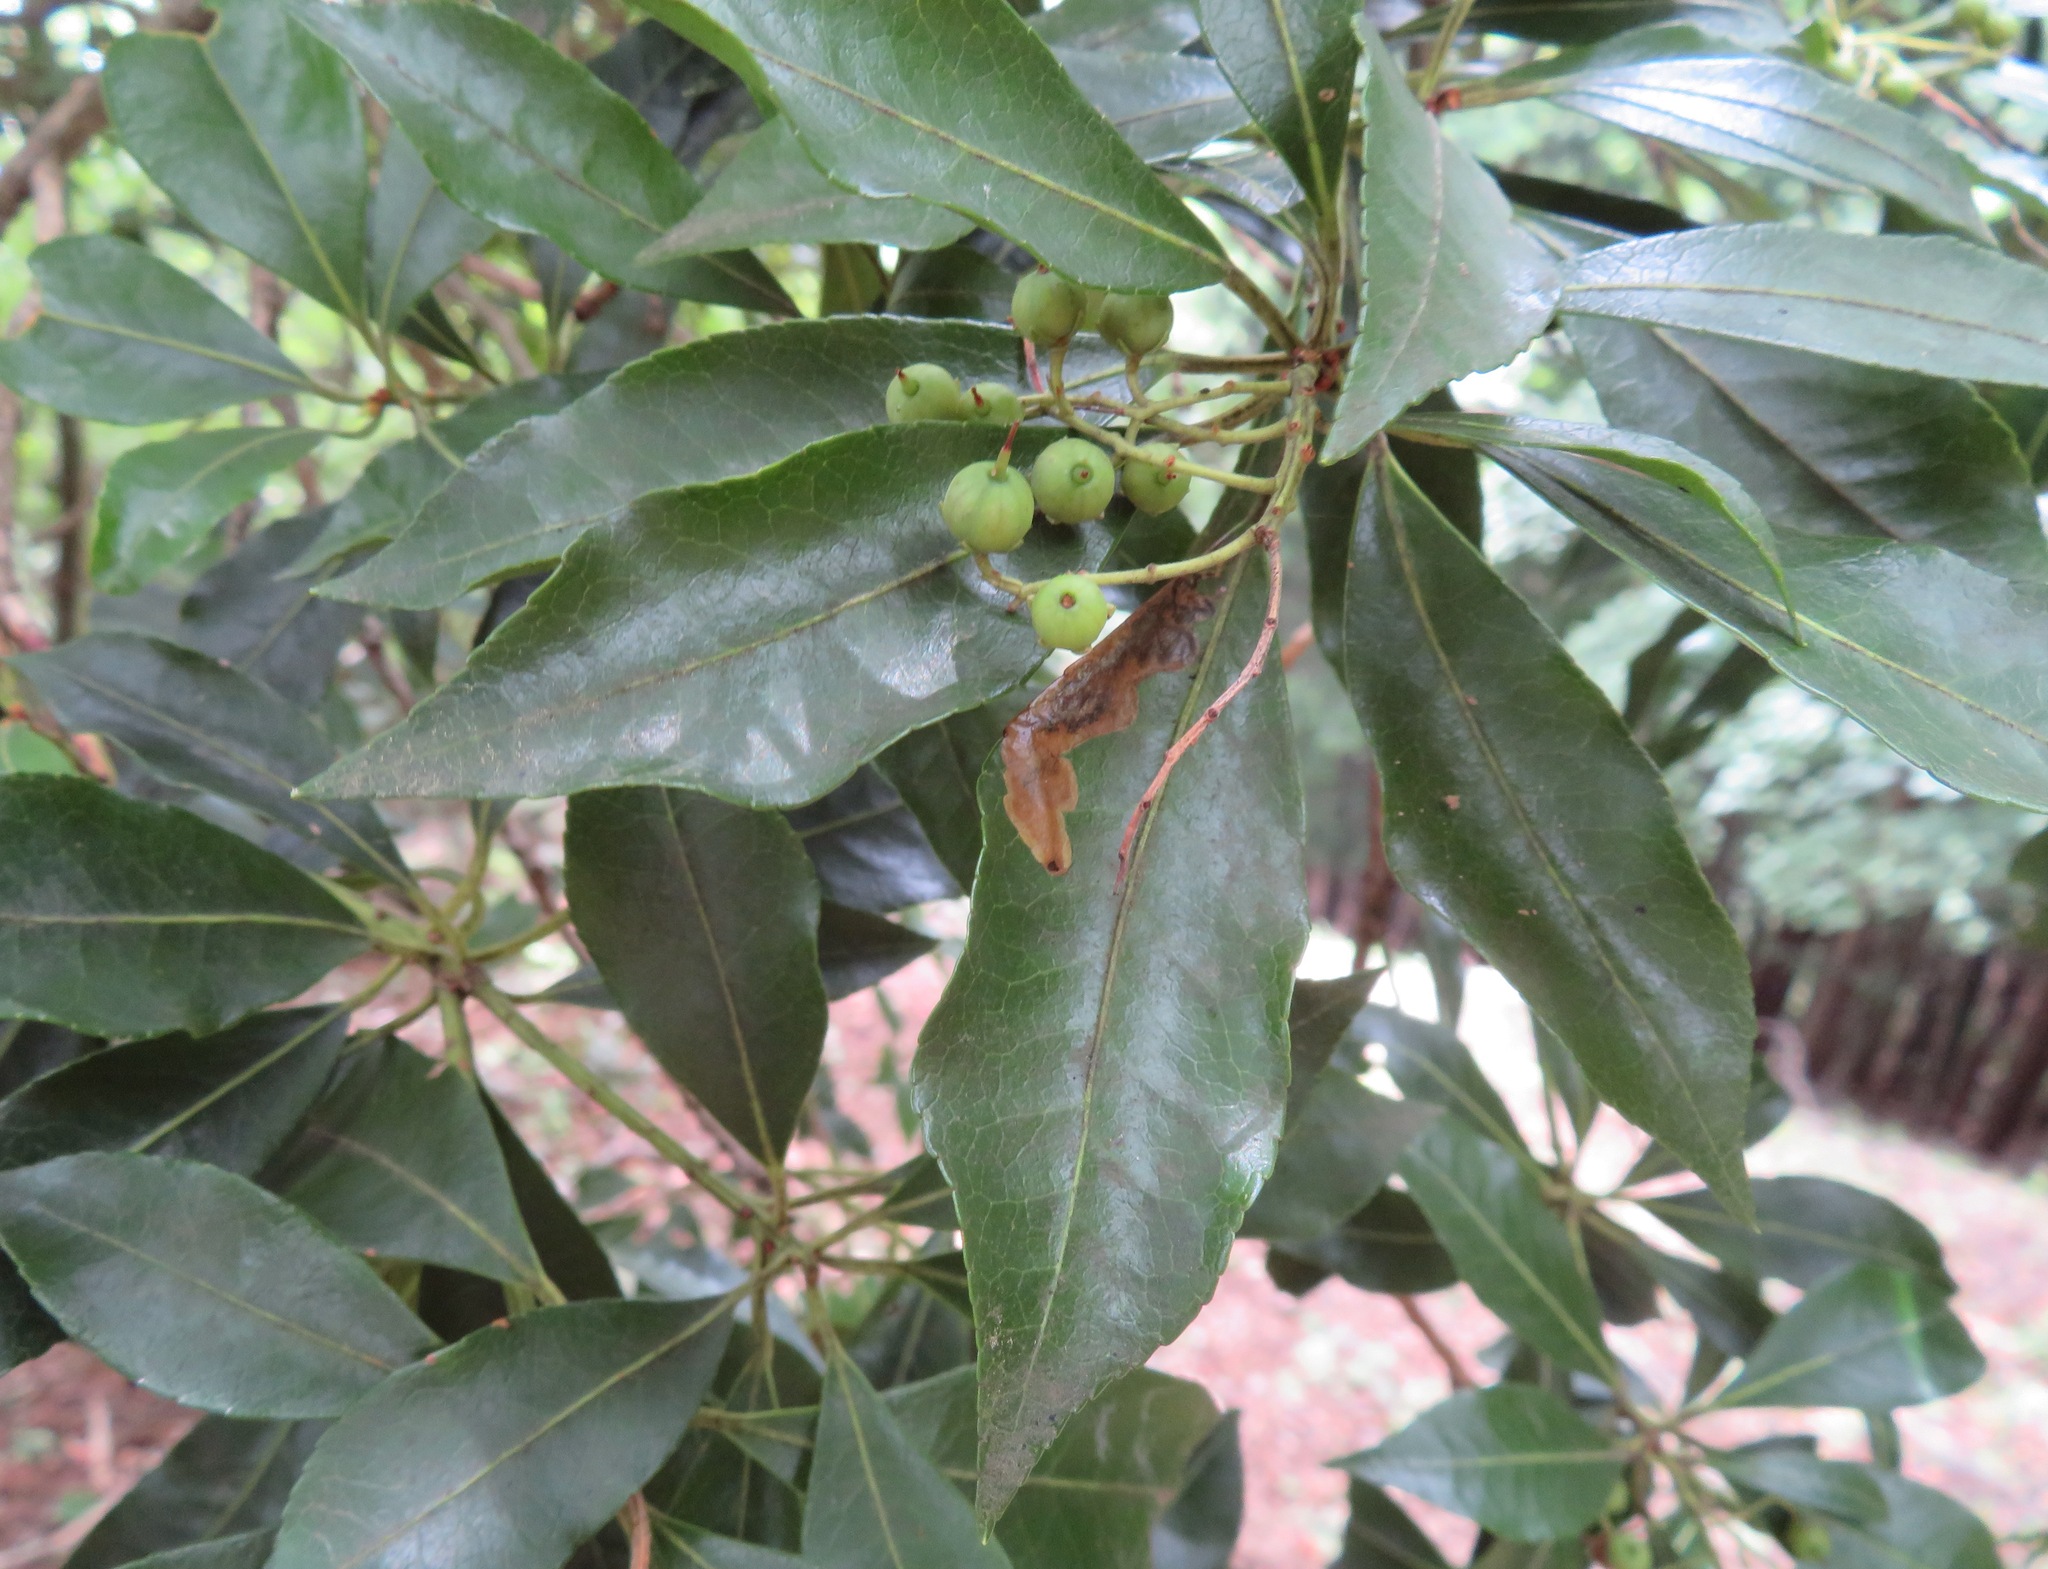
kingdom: Plantae
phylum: Tracheophyta
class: Magnoliopsida
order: Ericales
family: Ericaceae
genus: Pieris
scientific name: Pieris japonica
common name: Japanese pieris
